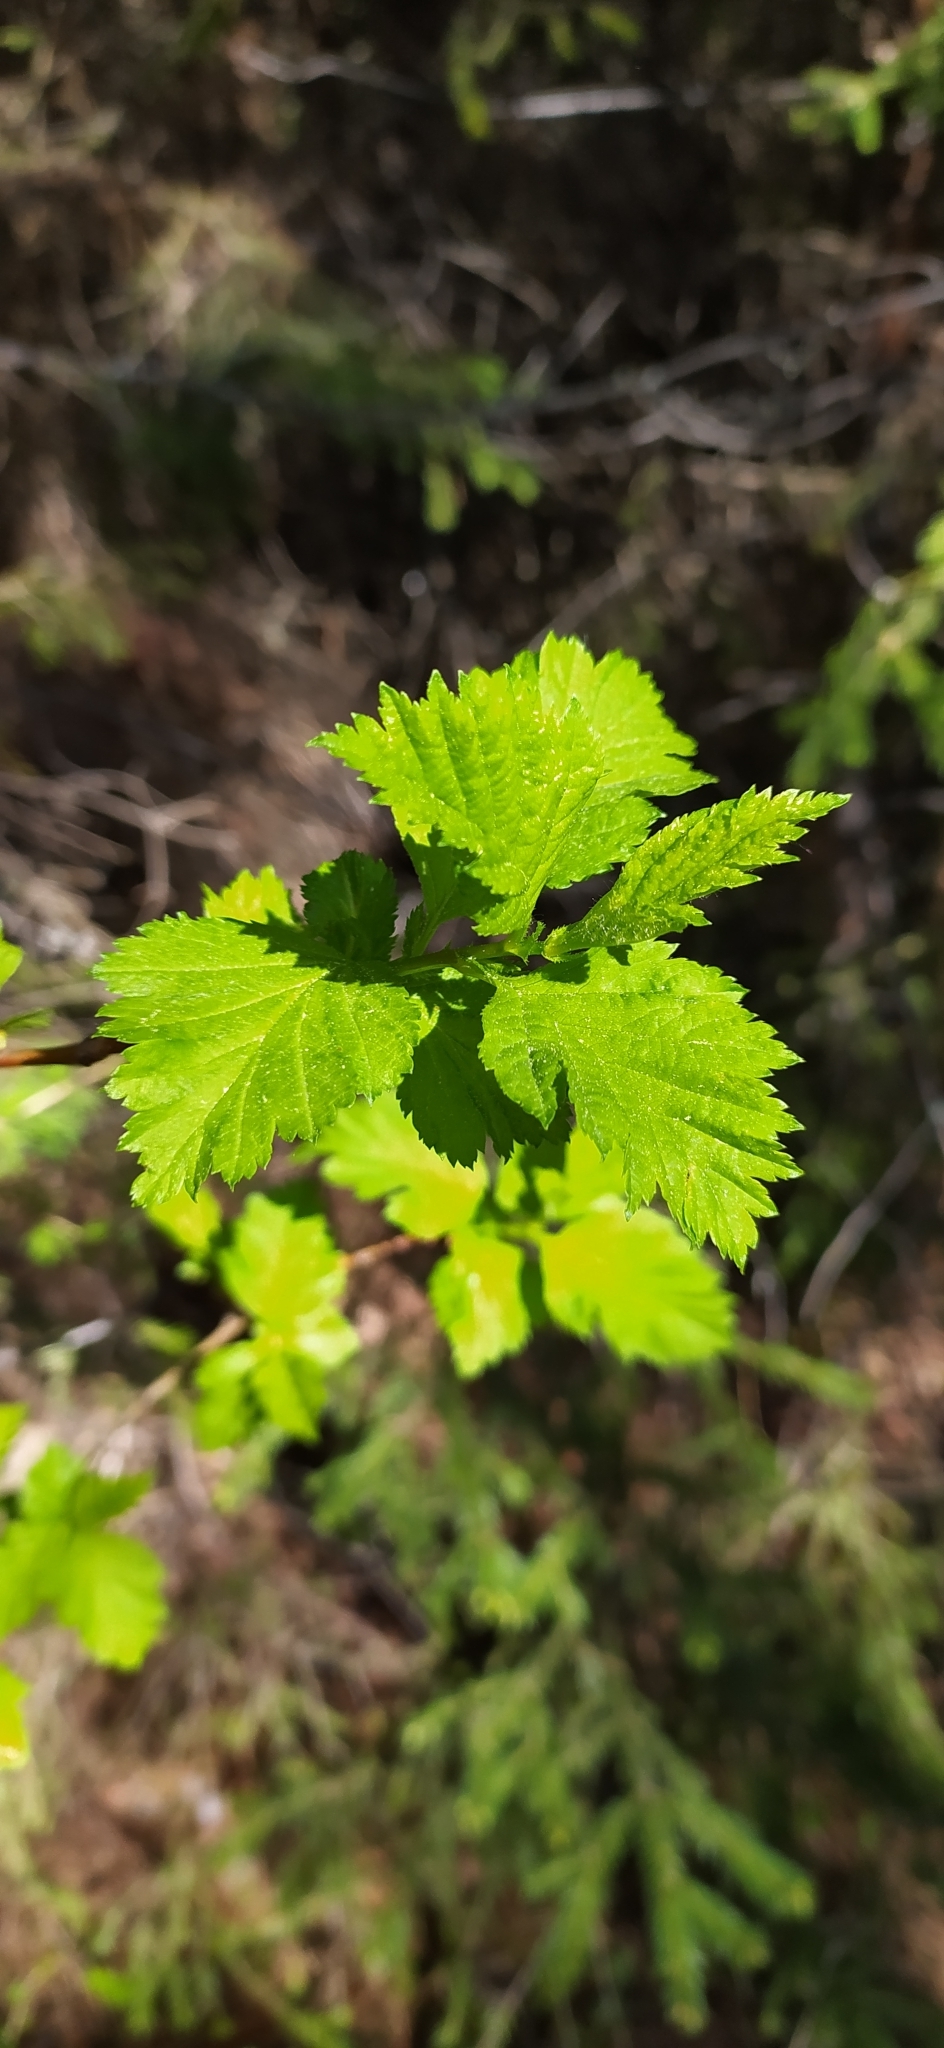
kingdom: Plantae
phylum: Tracheophyta
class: Magnoliopsida
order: Rosales
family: Rosaceae
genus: Crataegus
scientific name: Crataegus sanguinea
